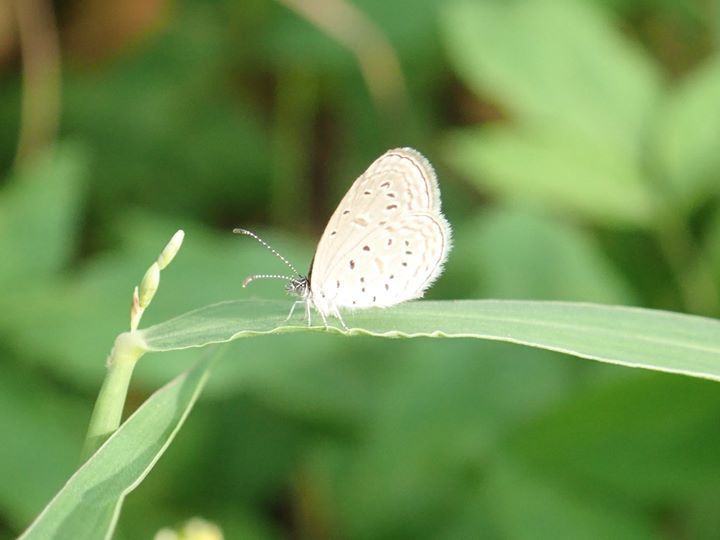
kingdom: Animalia
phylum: Arthropoda
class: Insecta
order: Lepidoptera
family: Lycaenidae
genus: Zizula
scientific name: Zizula hylax
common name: Gaika blue
